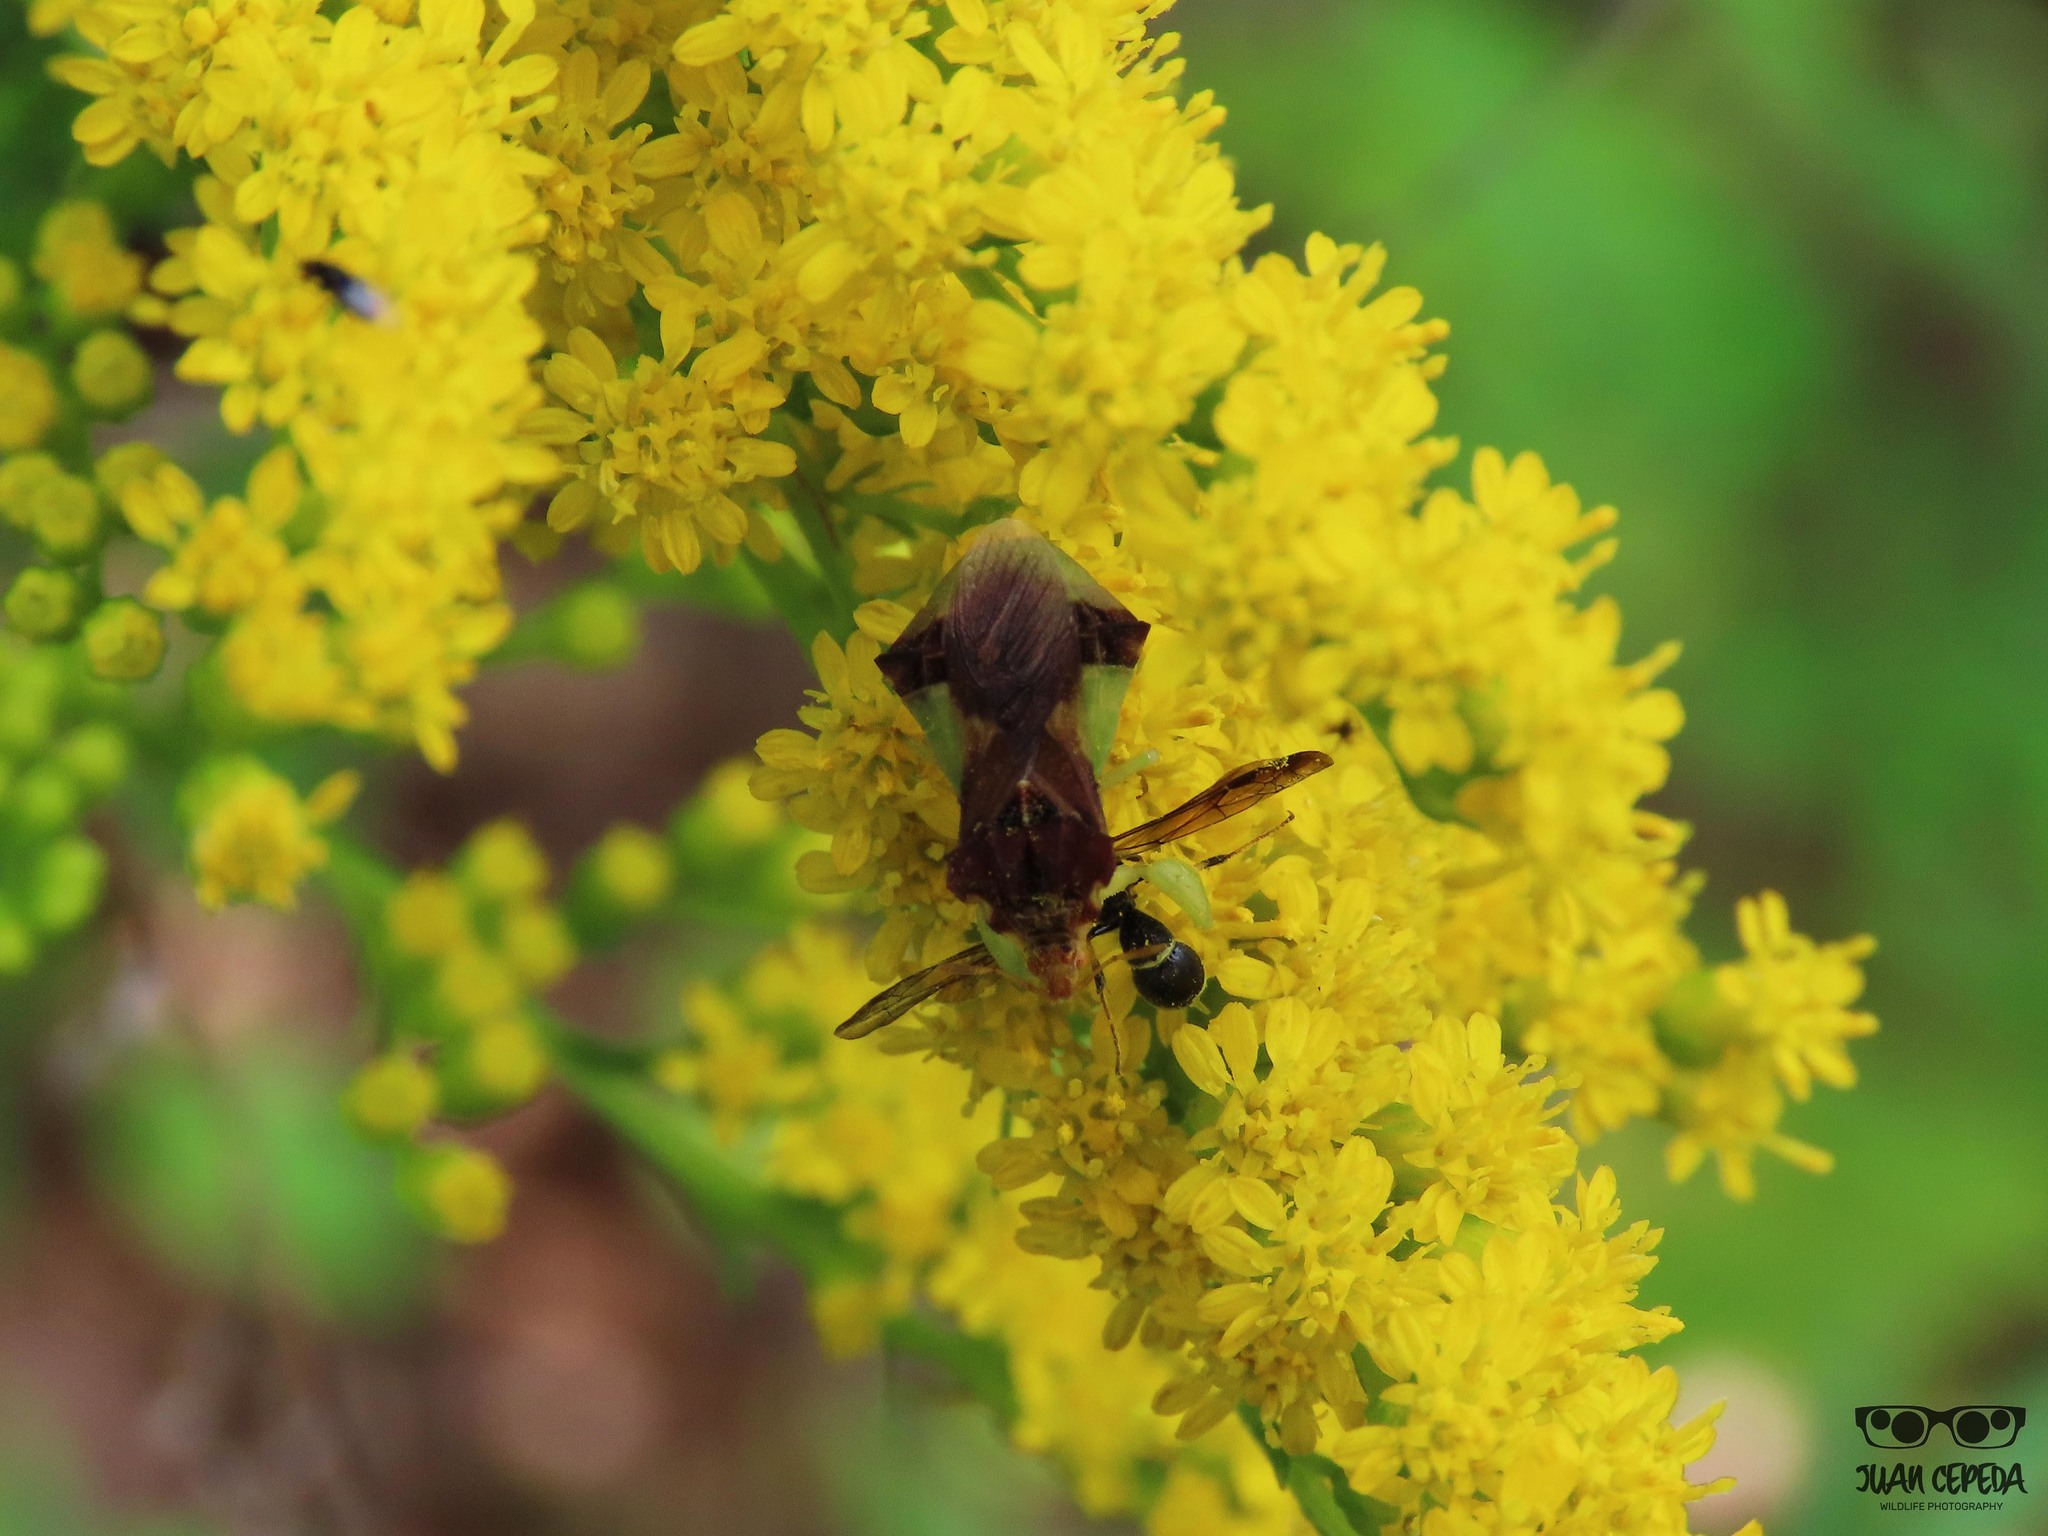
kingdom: Animalia
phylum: Arthropoda
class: Insecta
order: Hemiptera
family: Reduviidae
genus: Phymata
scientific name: Phymata pennsylvanica
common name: Pennsylvania ambush bug
